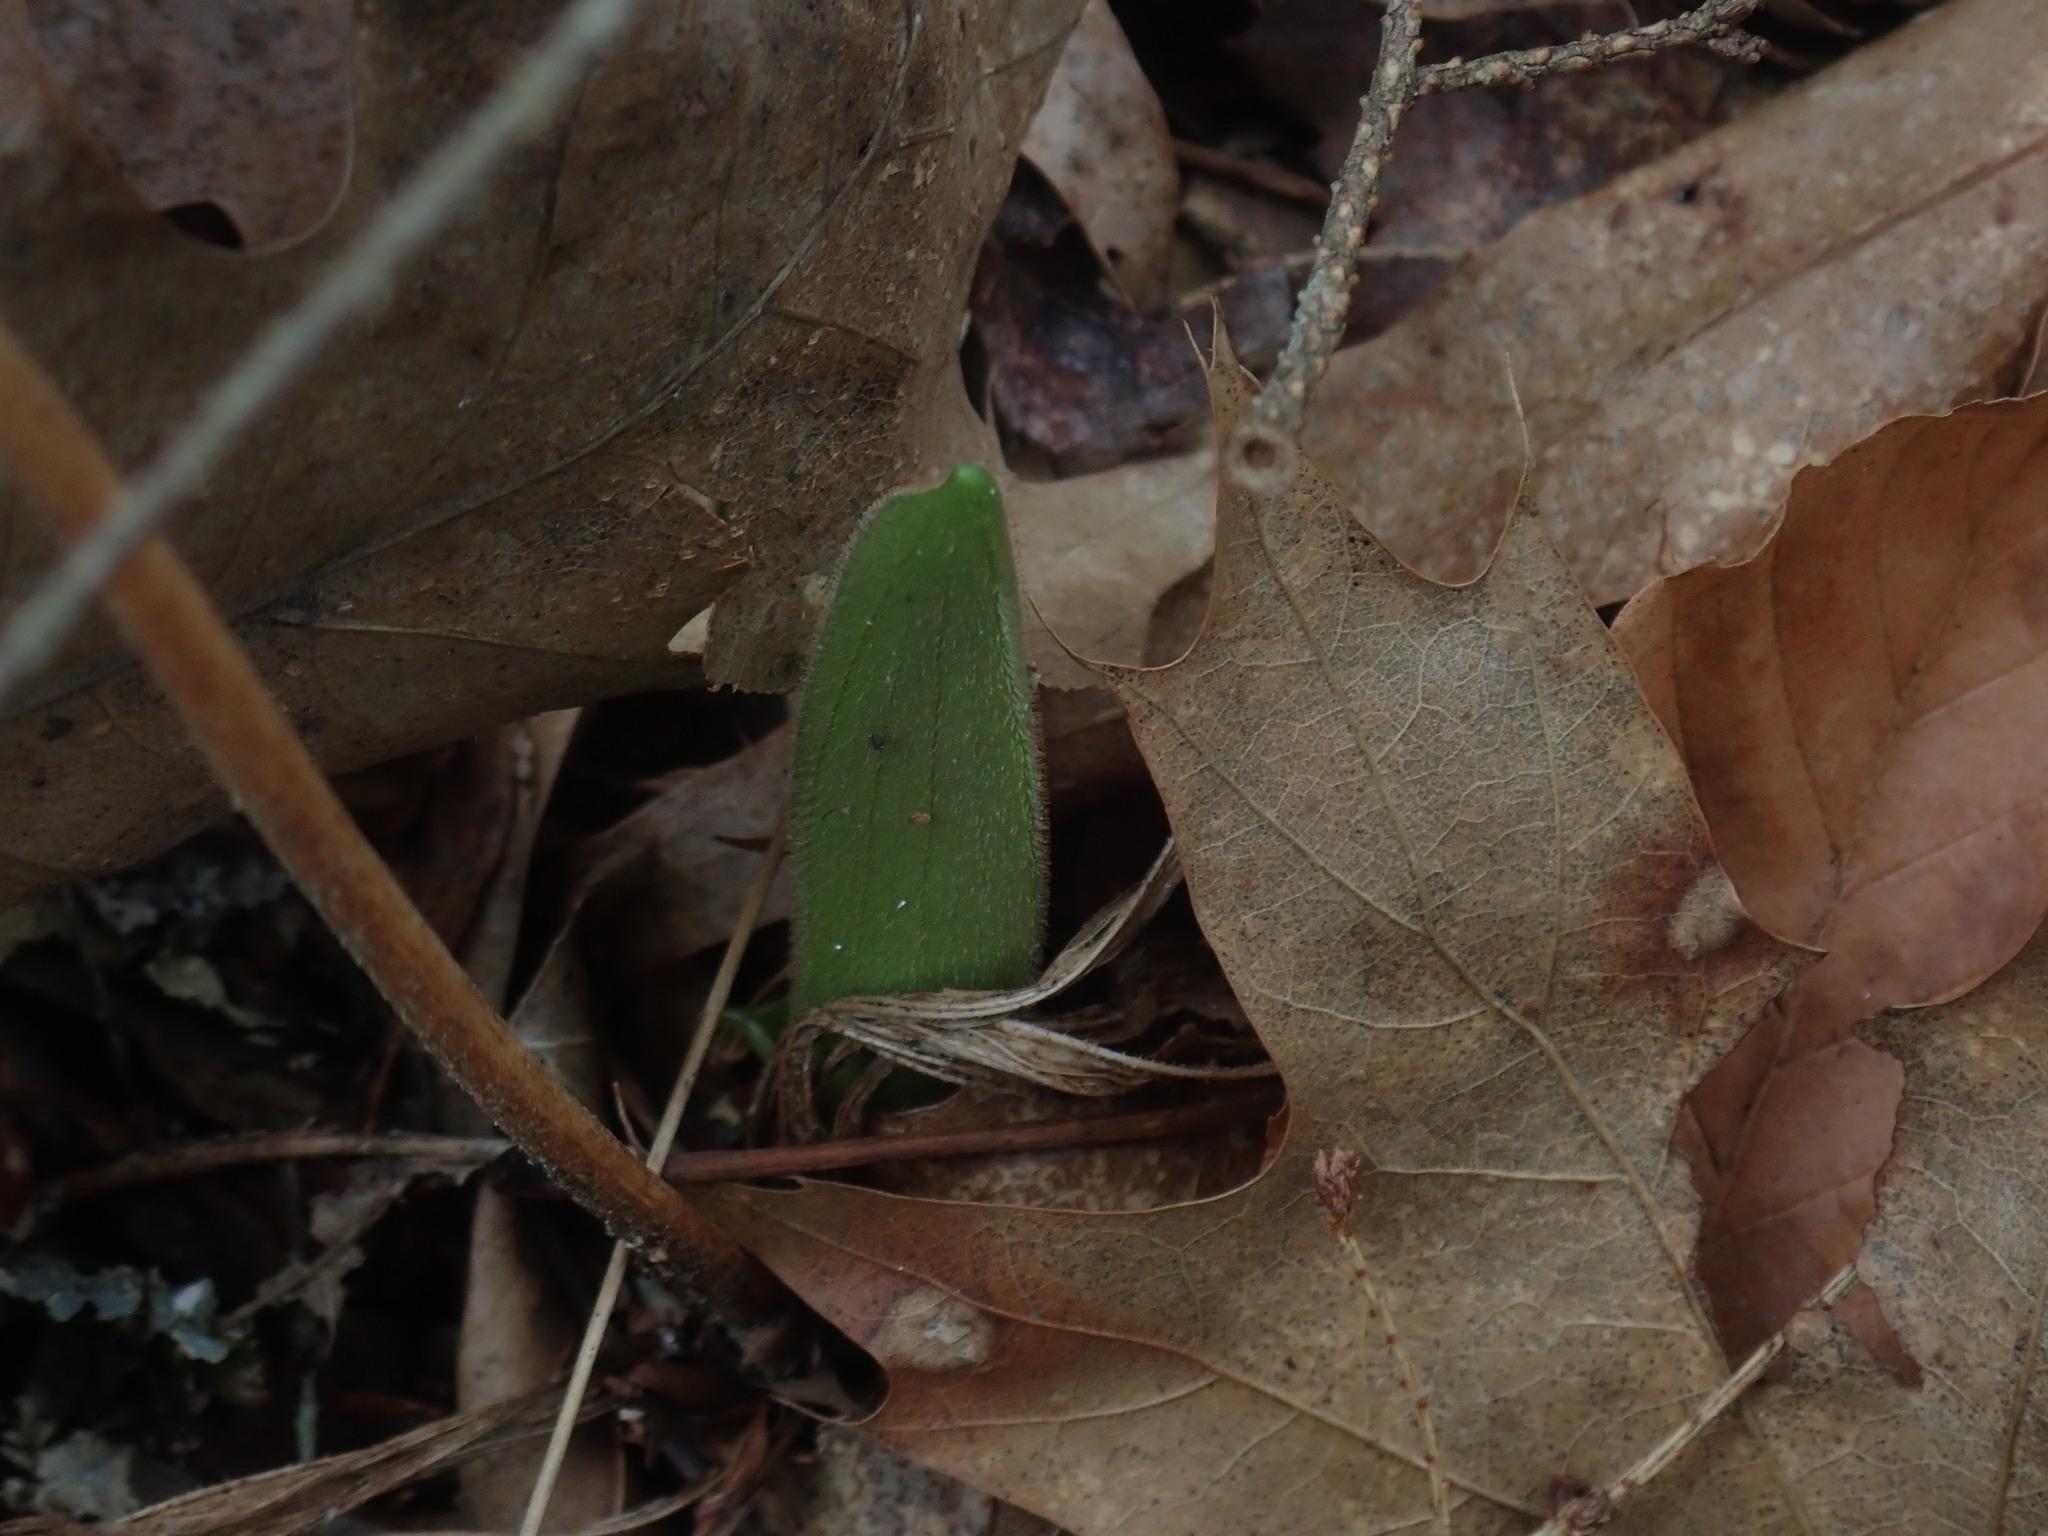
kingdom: Plantae
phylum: Tracheophyta
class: Liliopsida
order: Asparagales
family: Orchidaceae
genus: Cypripedium
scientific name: Cypripedium acaule
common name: Pink lady's-slipper
